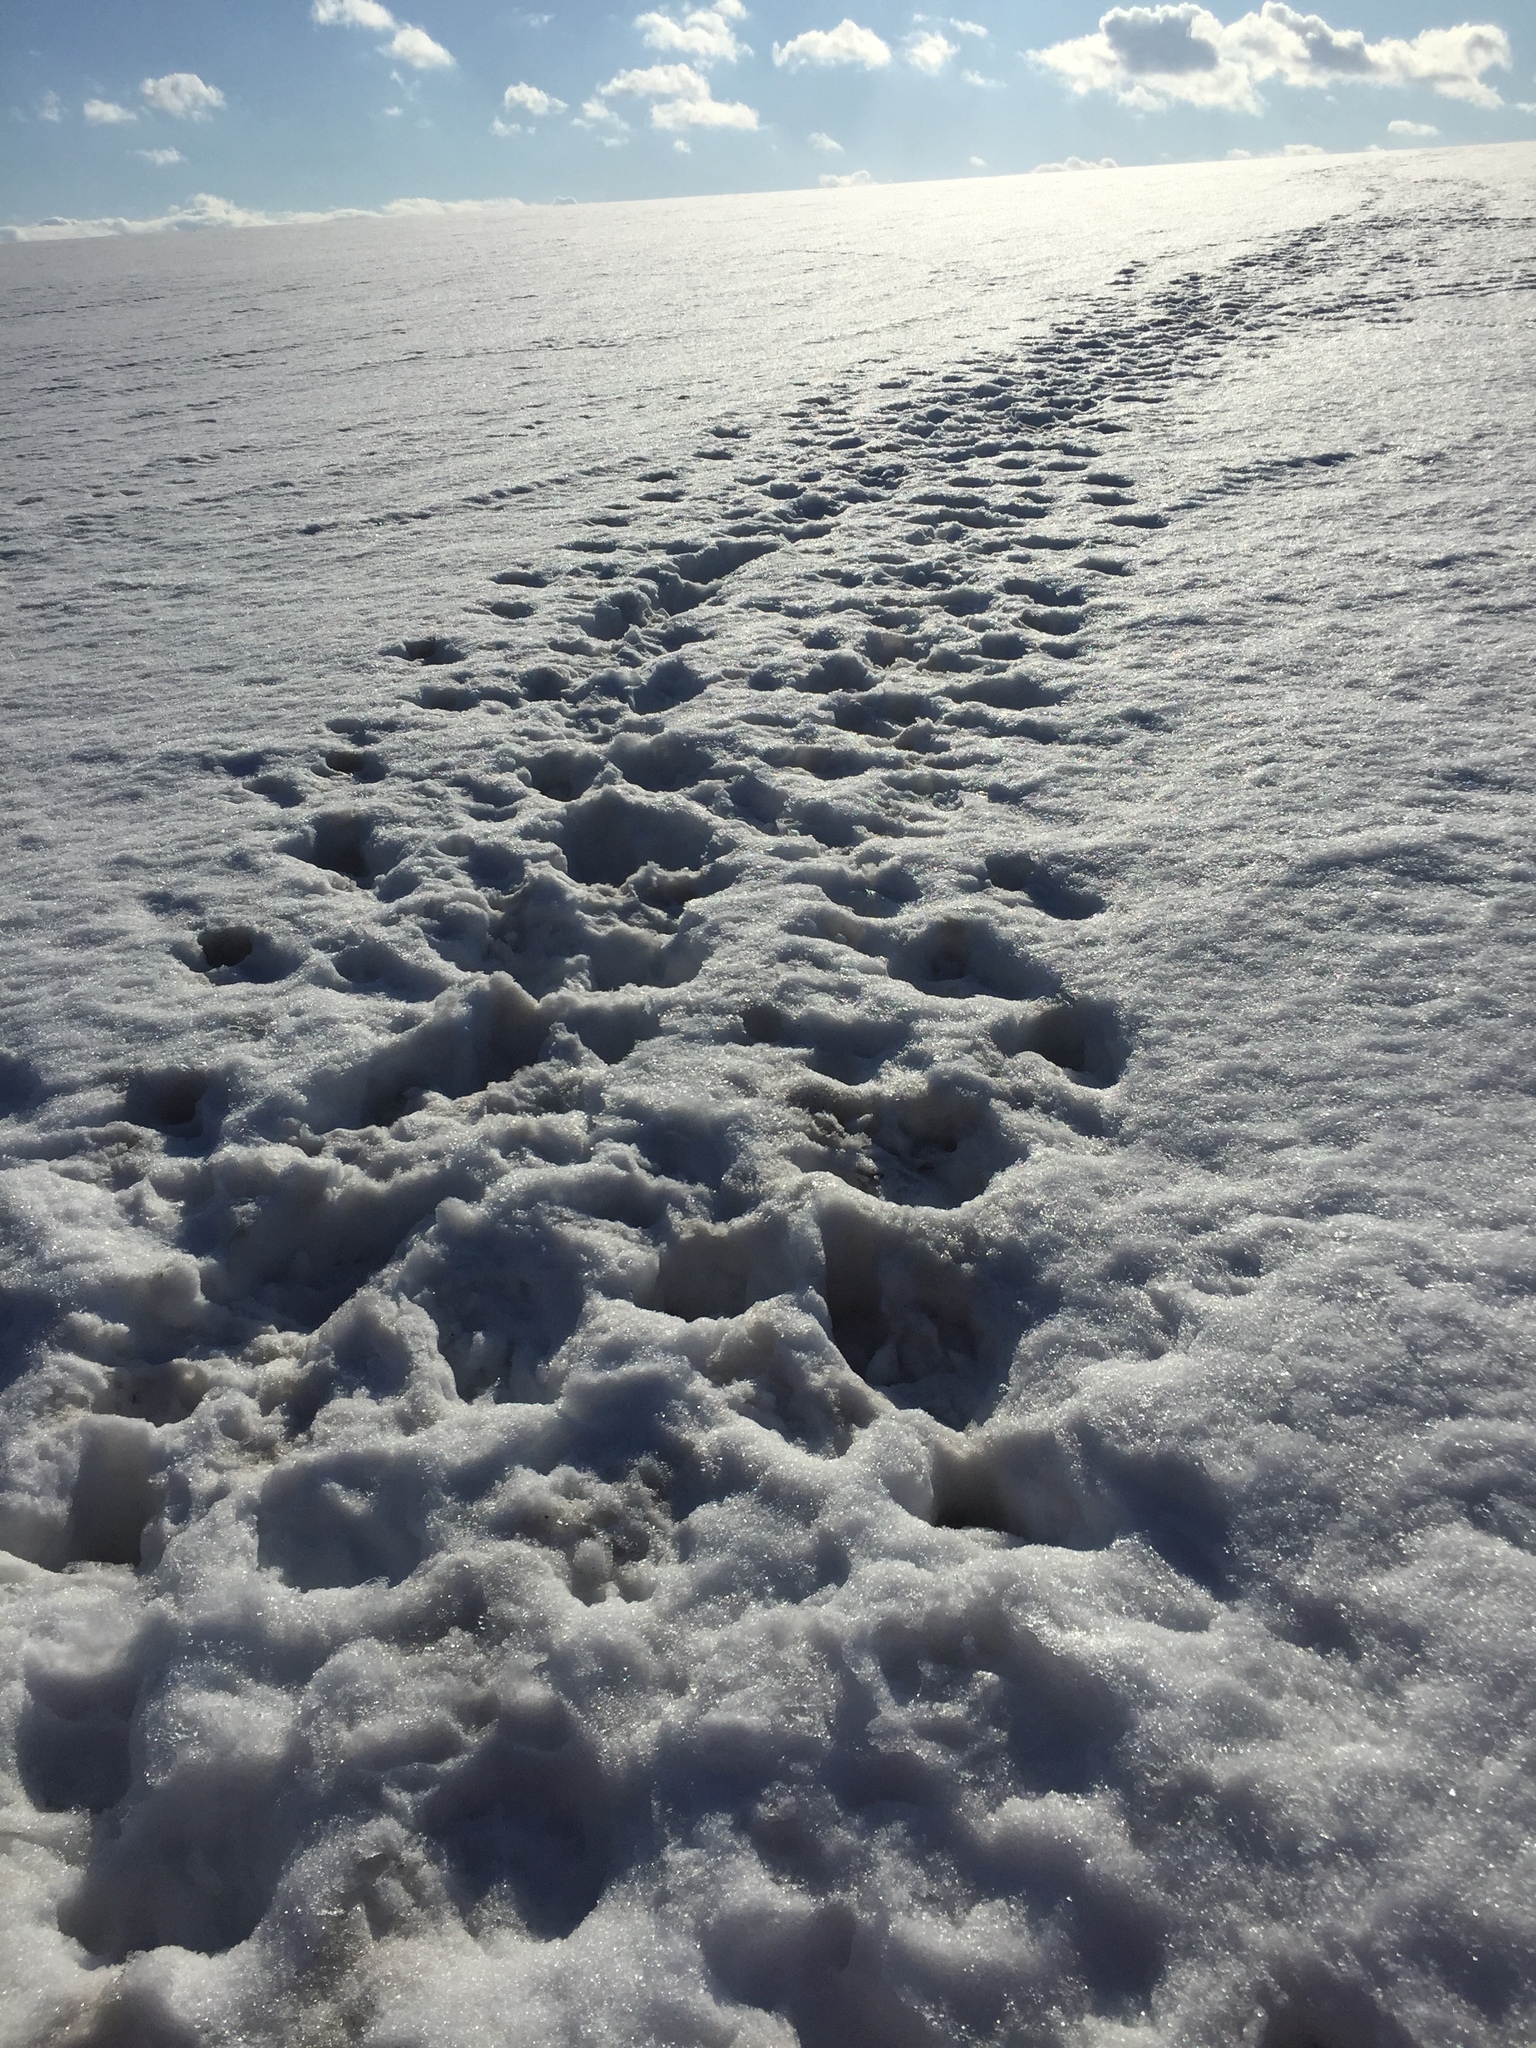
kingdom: Animalia
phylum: Chordata
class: Mammalia
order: Artiodactyla
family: Suidae
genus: Sus
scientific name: Sus scrofa
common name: Wild boar
